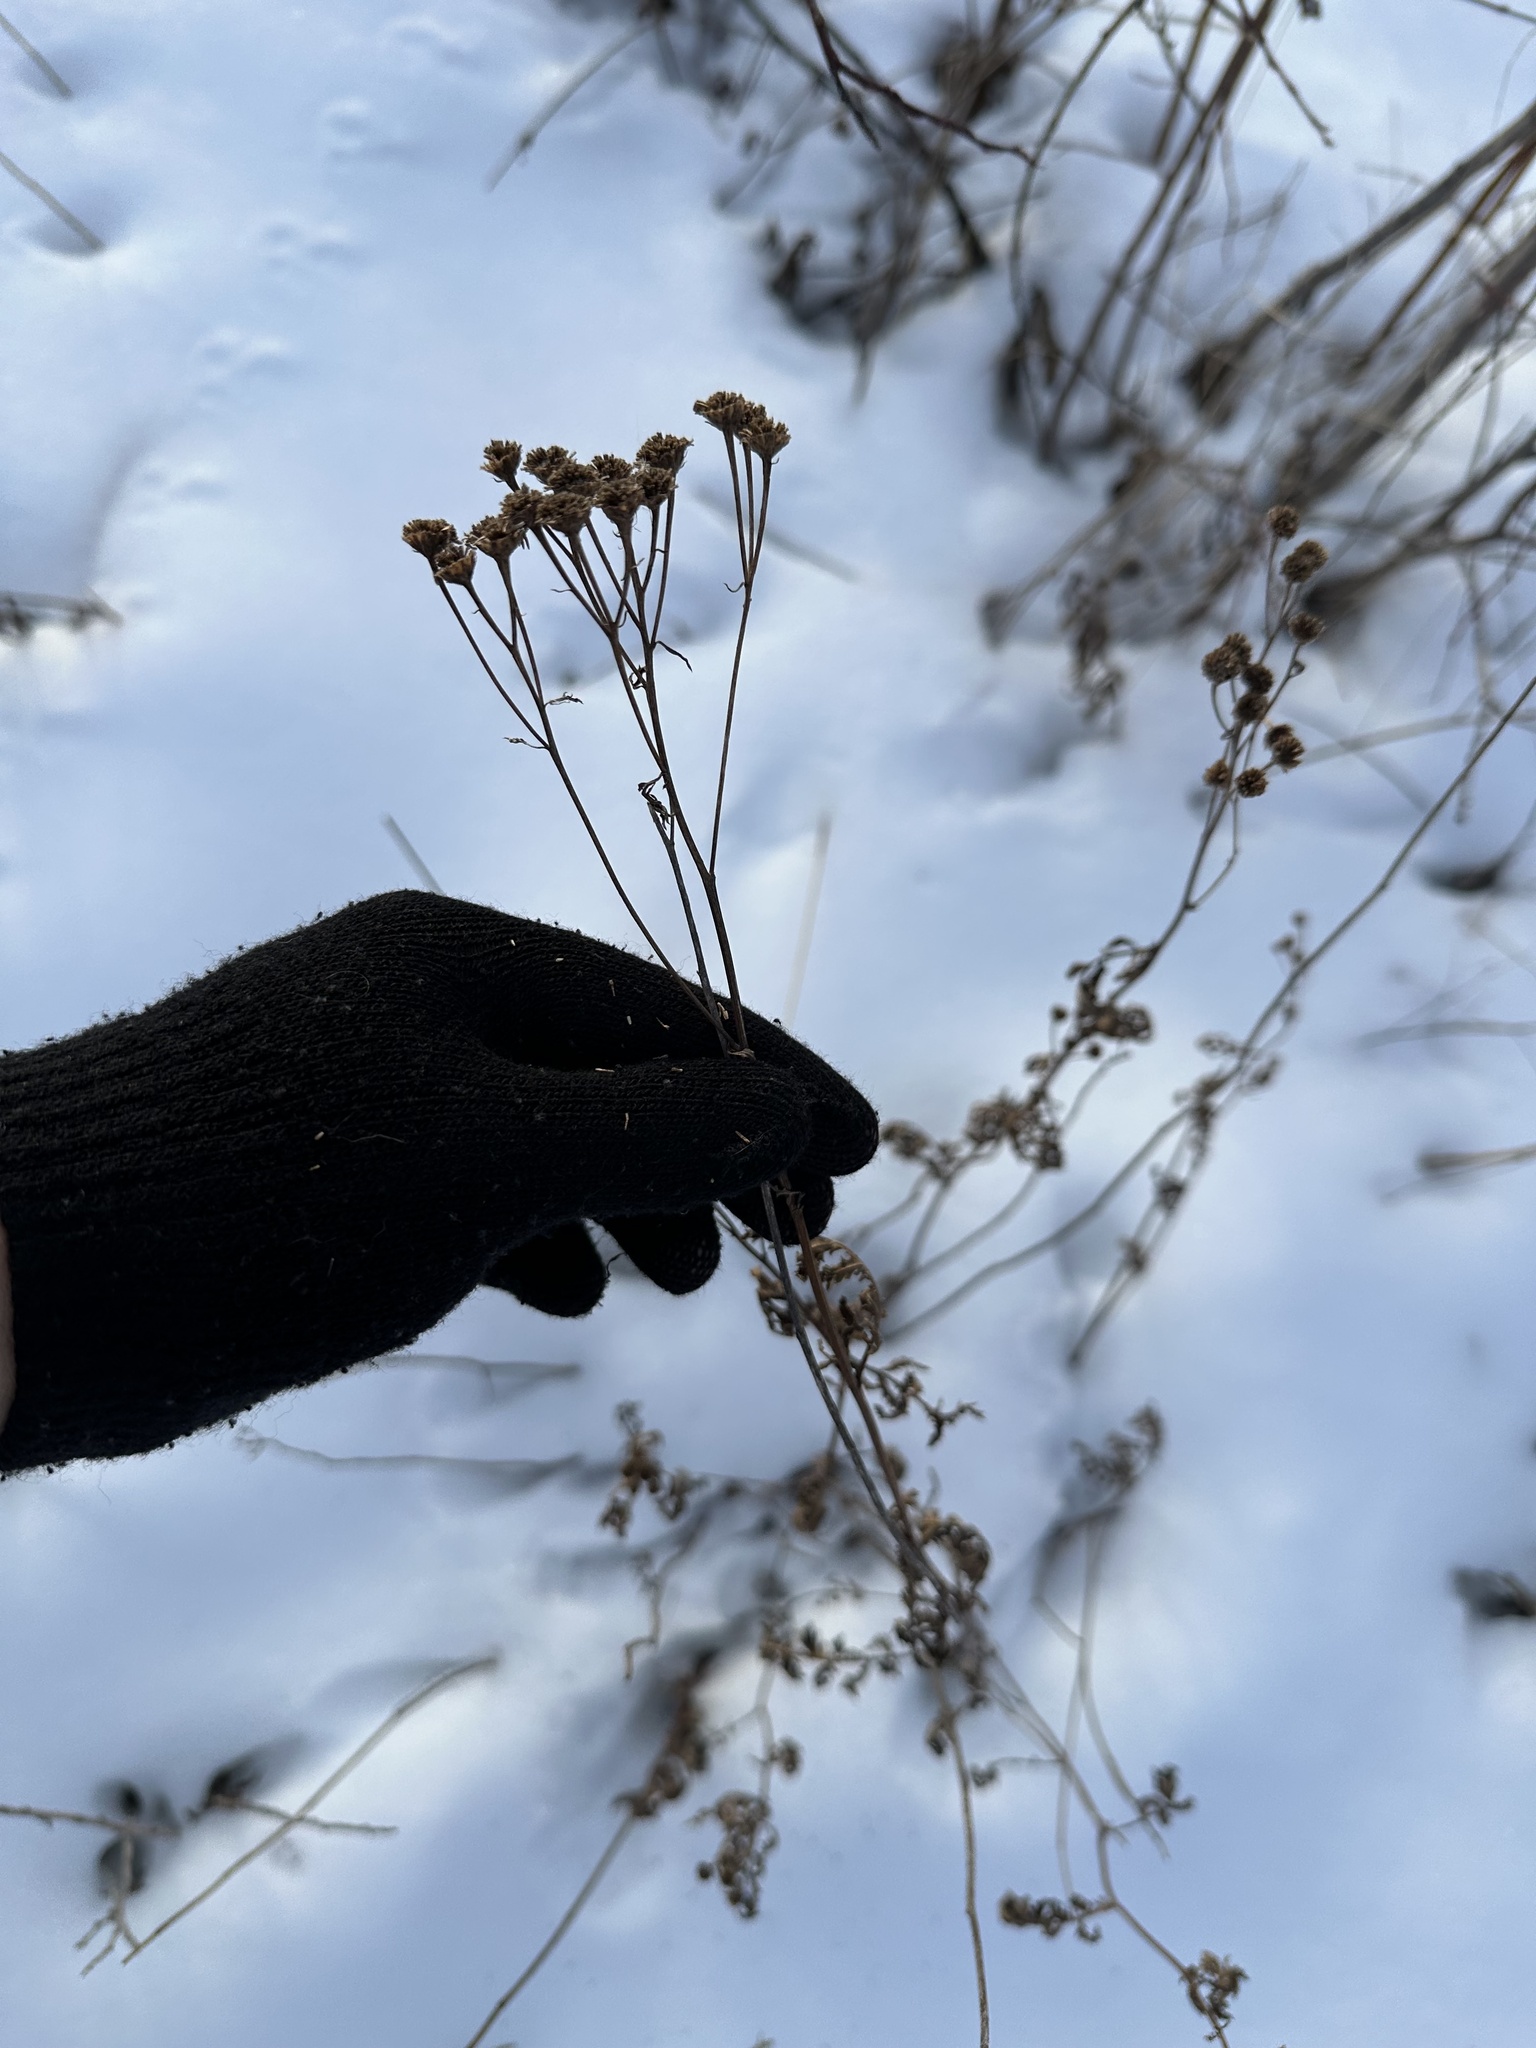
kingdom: Plantae
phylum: Tracheophyta
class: Magnoliopsida
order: Asterales
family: Asteraceae
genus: Tanacetum
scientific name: Tanacetum vulgare
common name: Common tansy
